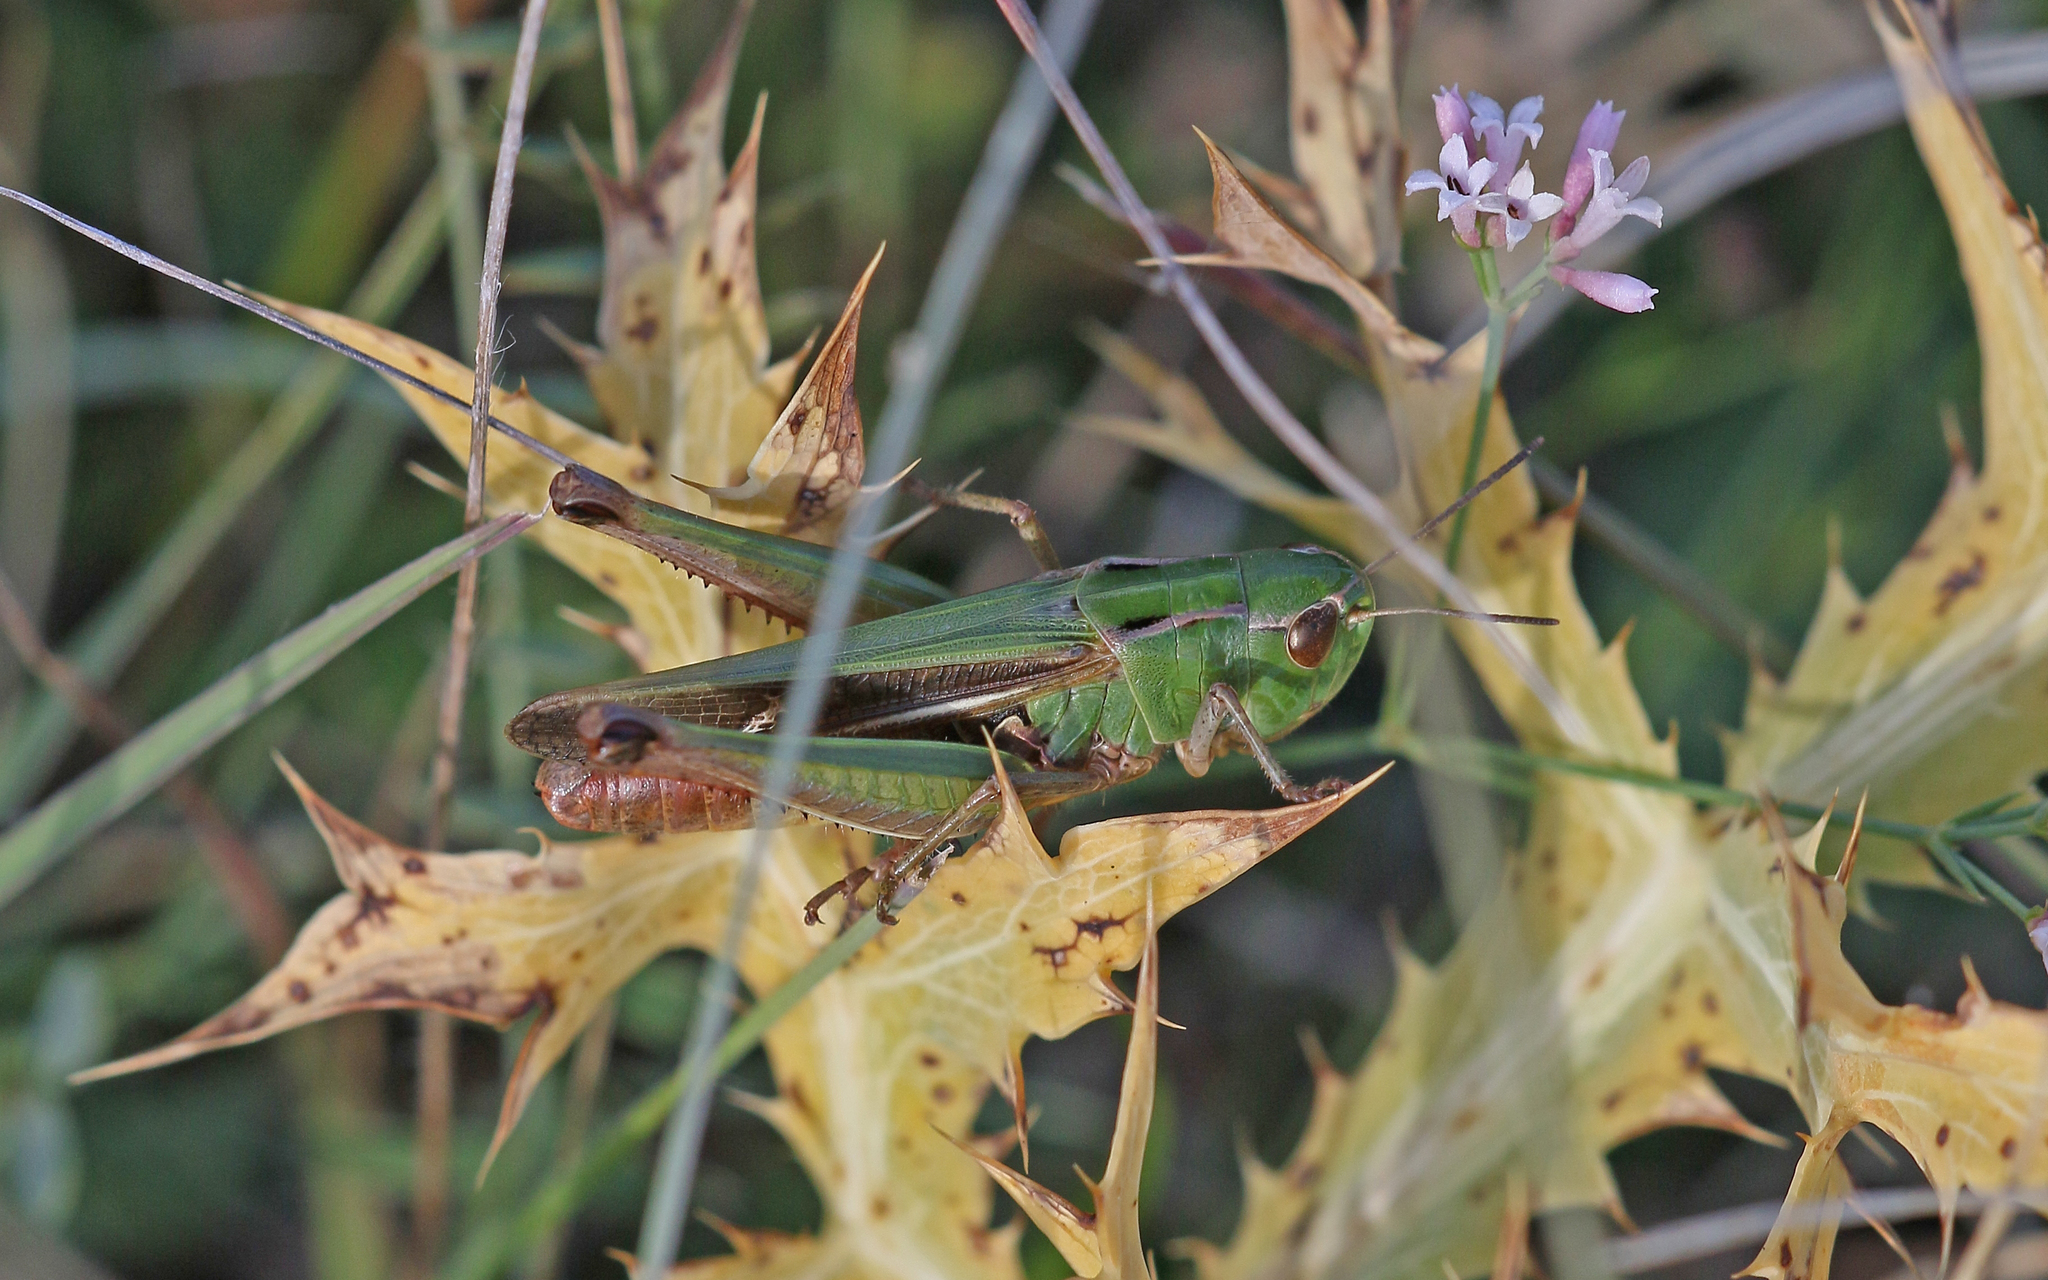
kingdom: Animalia
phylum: Arthropoda
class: Insecta
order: Orthoptera
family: Acrididae
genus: Stenobothrus
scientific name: Stenobothrus lineatus
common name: Stripe-winged grasshopper
